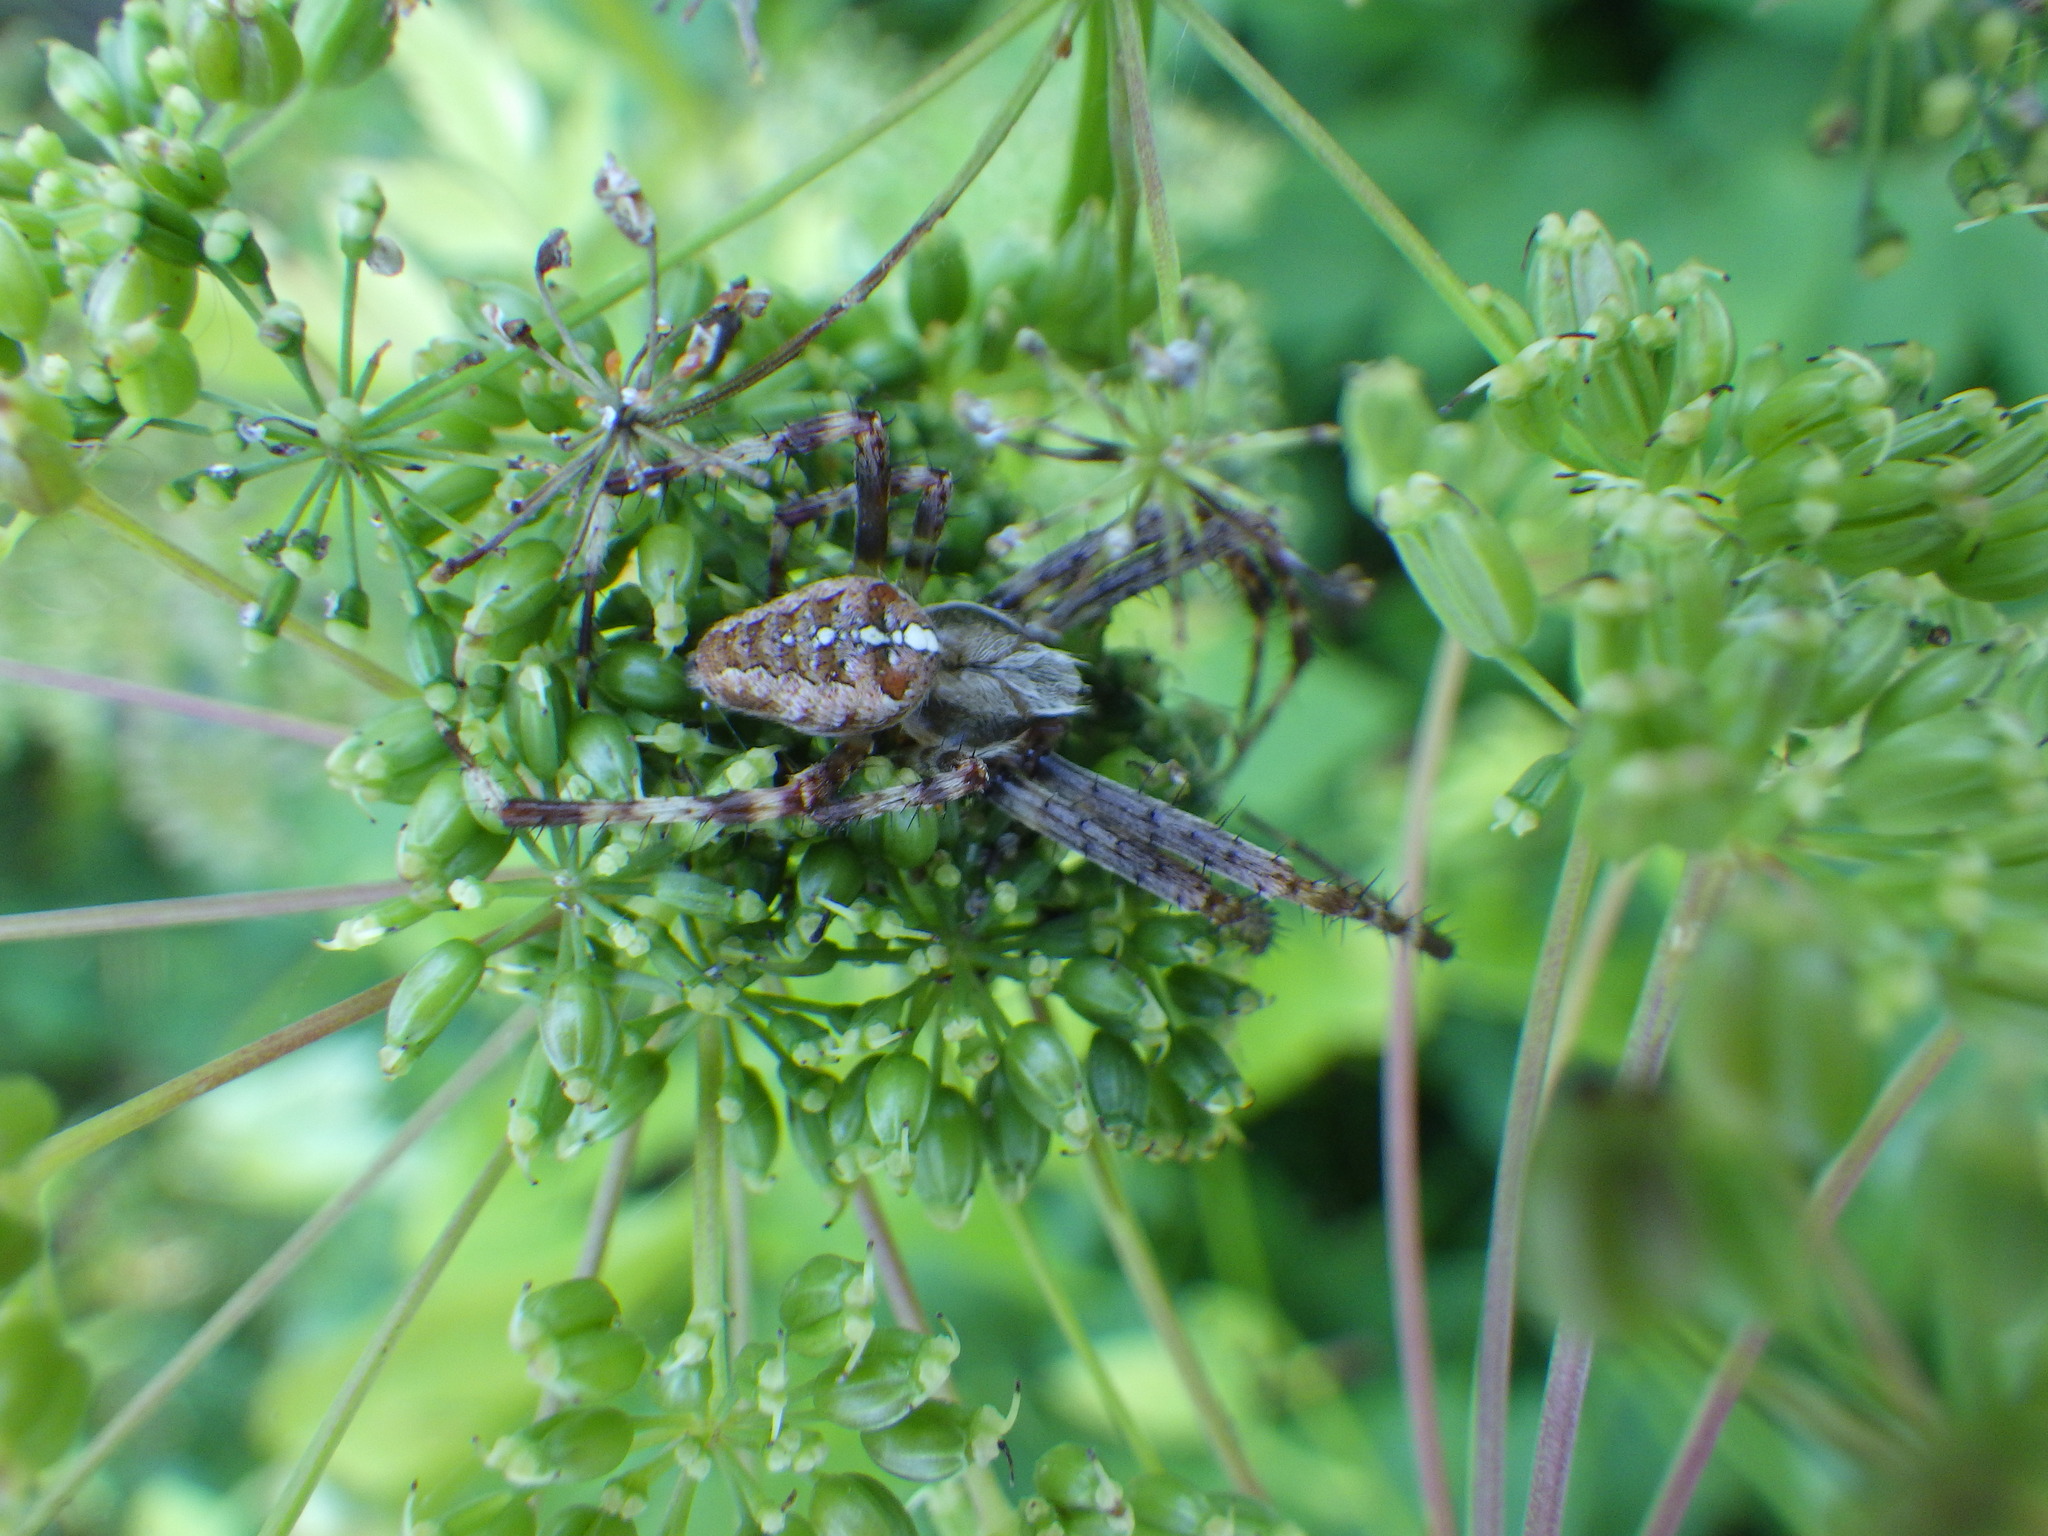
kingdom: Animalia
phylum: Arthropoda
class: Arachnida
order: Araneae
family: Araneidae
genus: Araneus
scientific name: Araneus diadematus
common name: Cross orbweaver
